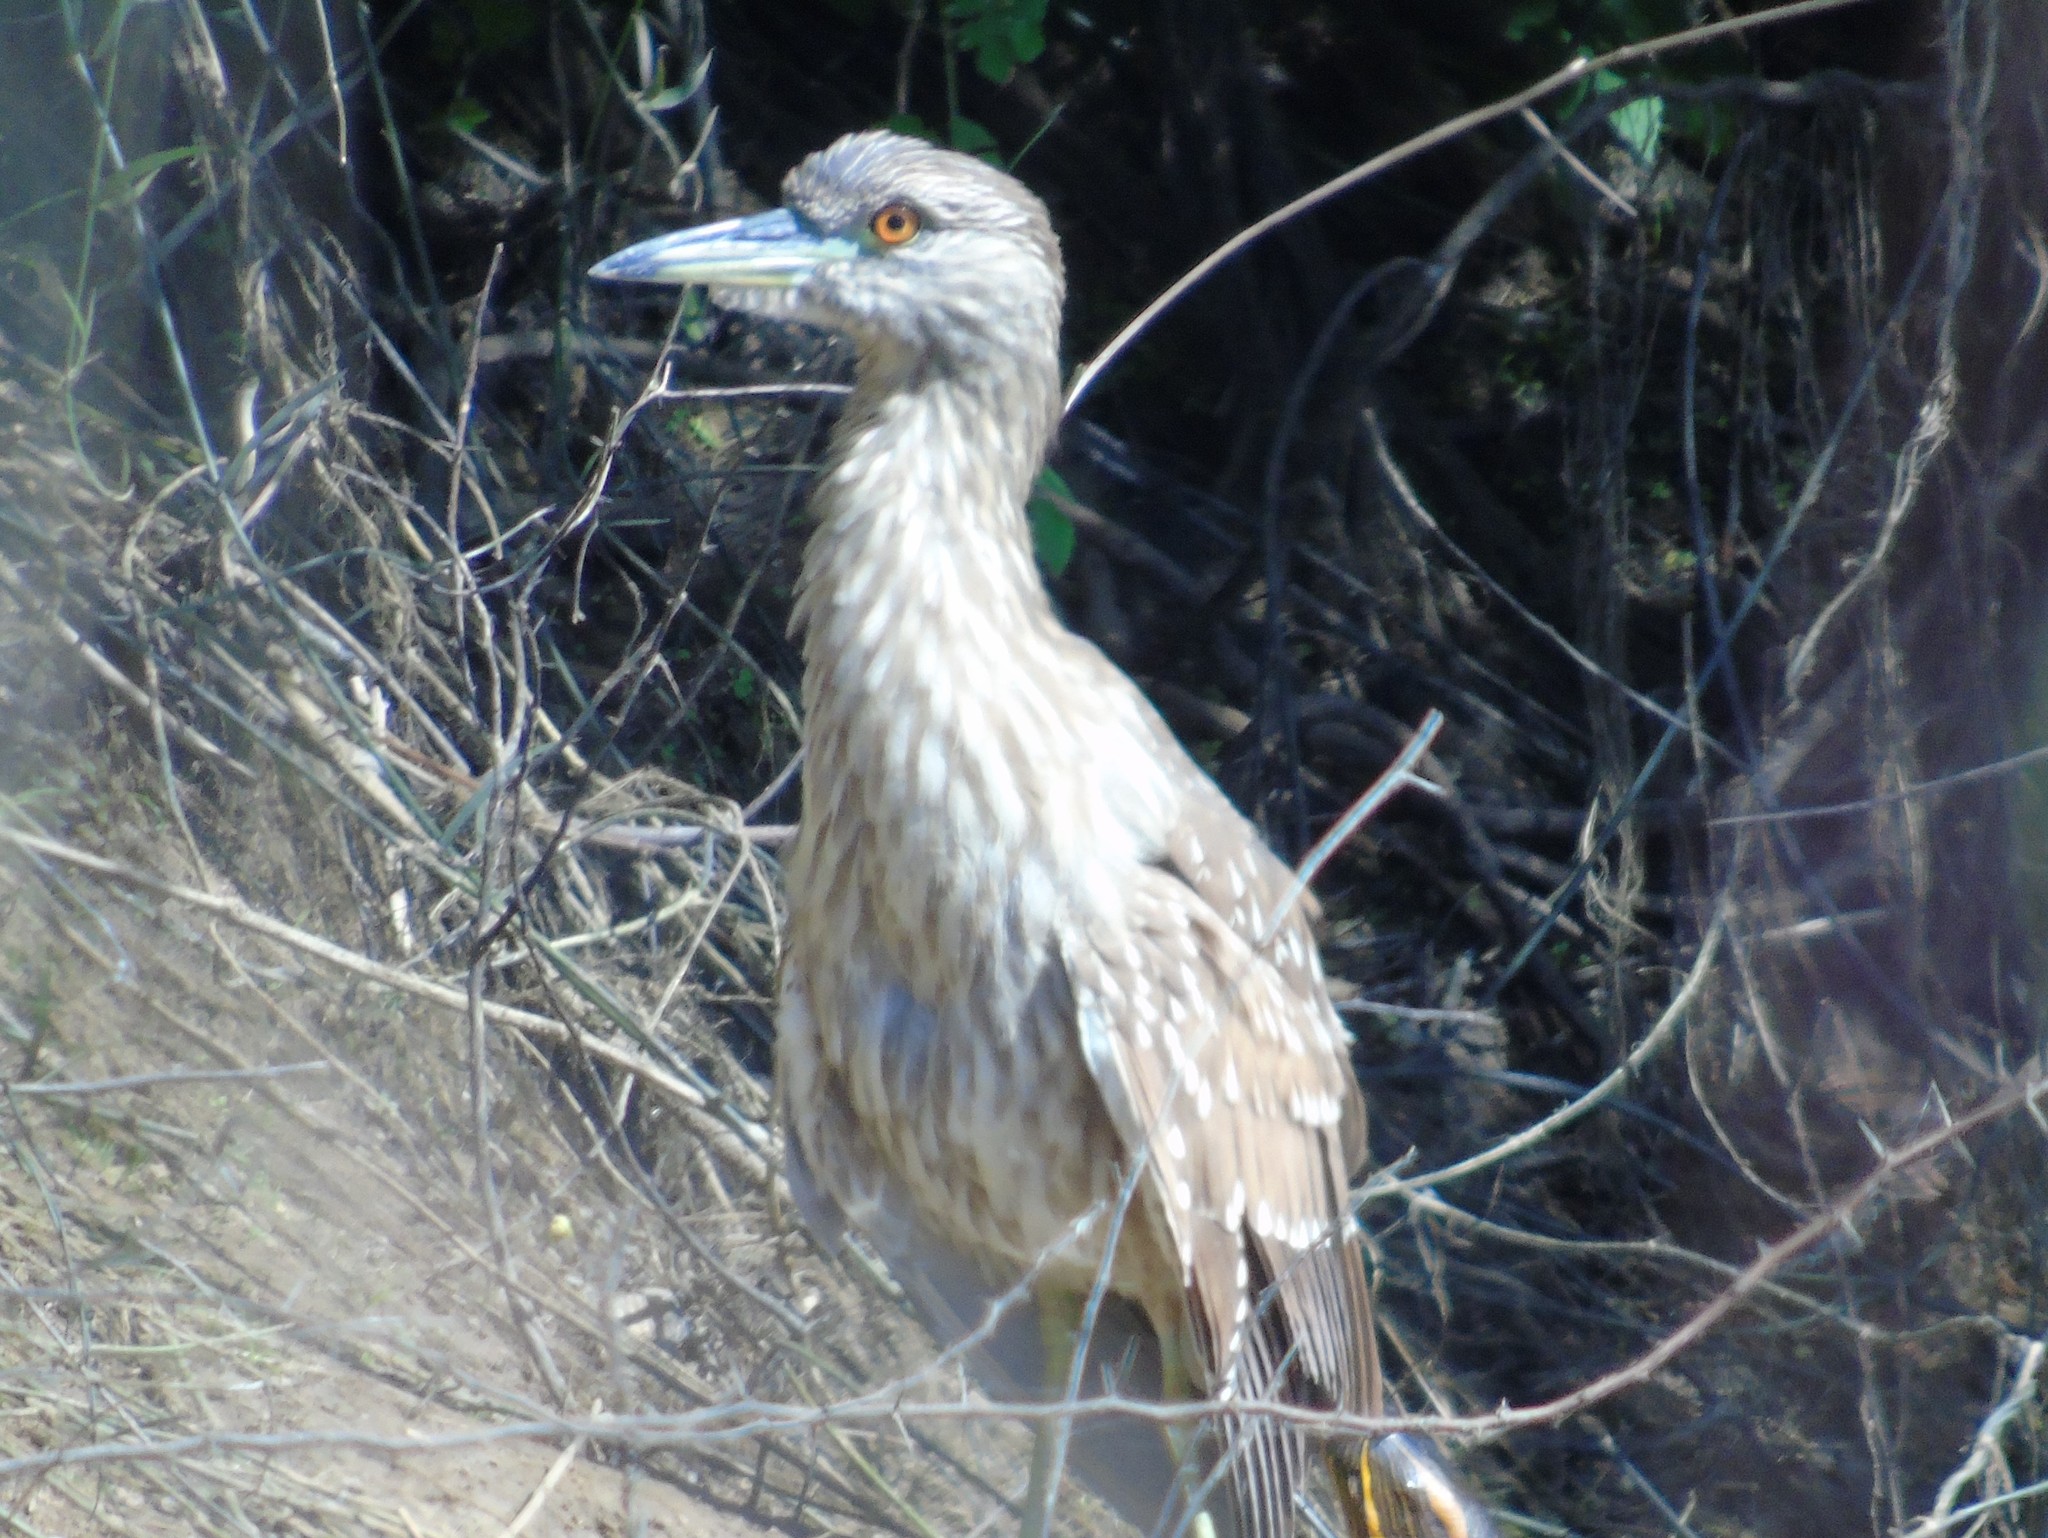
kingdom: Animalia
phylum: Chordata
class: Aves
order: Pelecaniformes
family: Ardeidae
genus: Nycticorax
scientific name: Nycticorax nycticorax
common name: Black-crowned night heron
